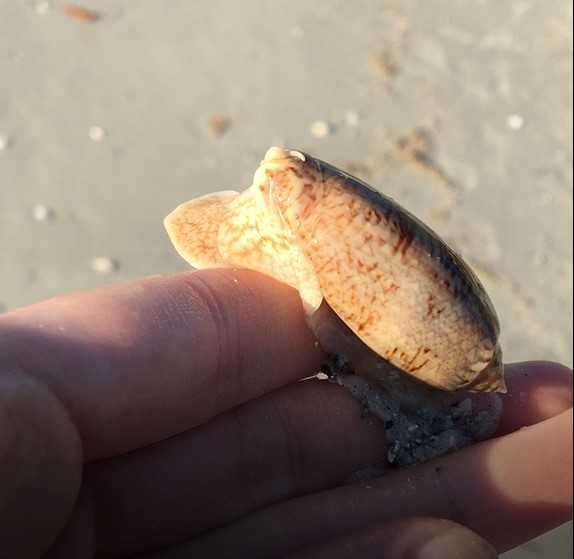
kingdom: Animalia
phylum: Mollusca
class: Gastropoda
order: Neogastropoda
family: Olividae
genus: Oliva
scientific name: Oliva sayana
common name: Lettered olive
